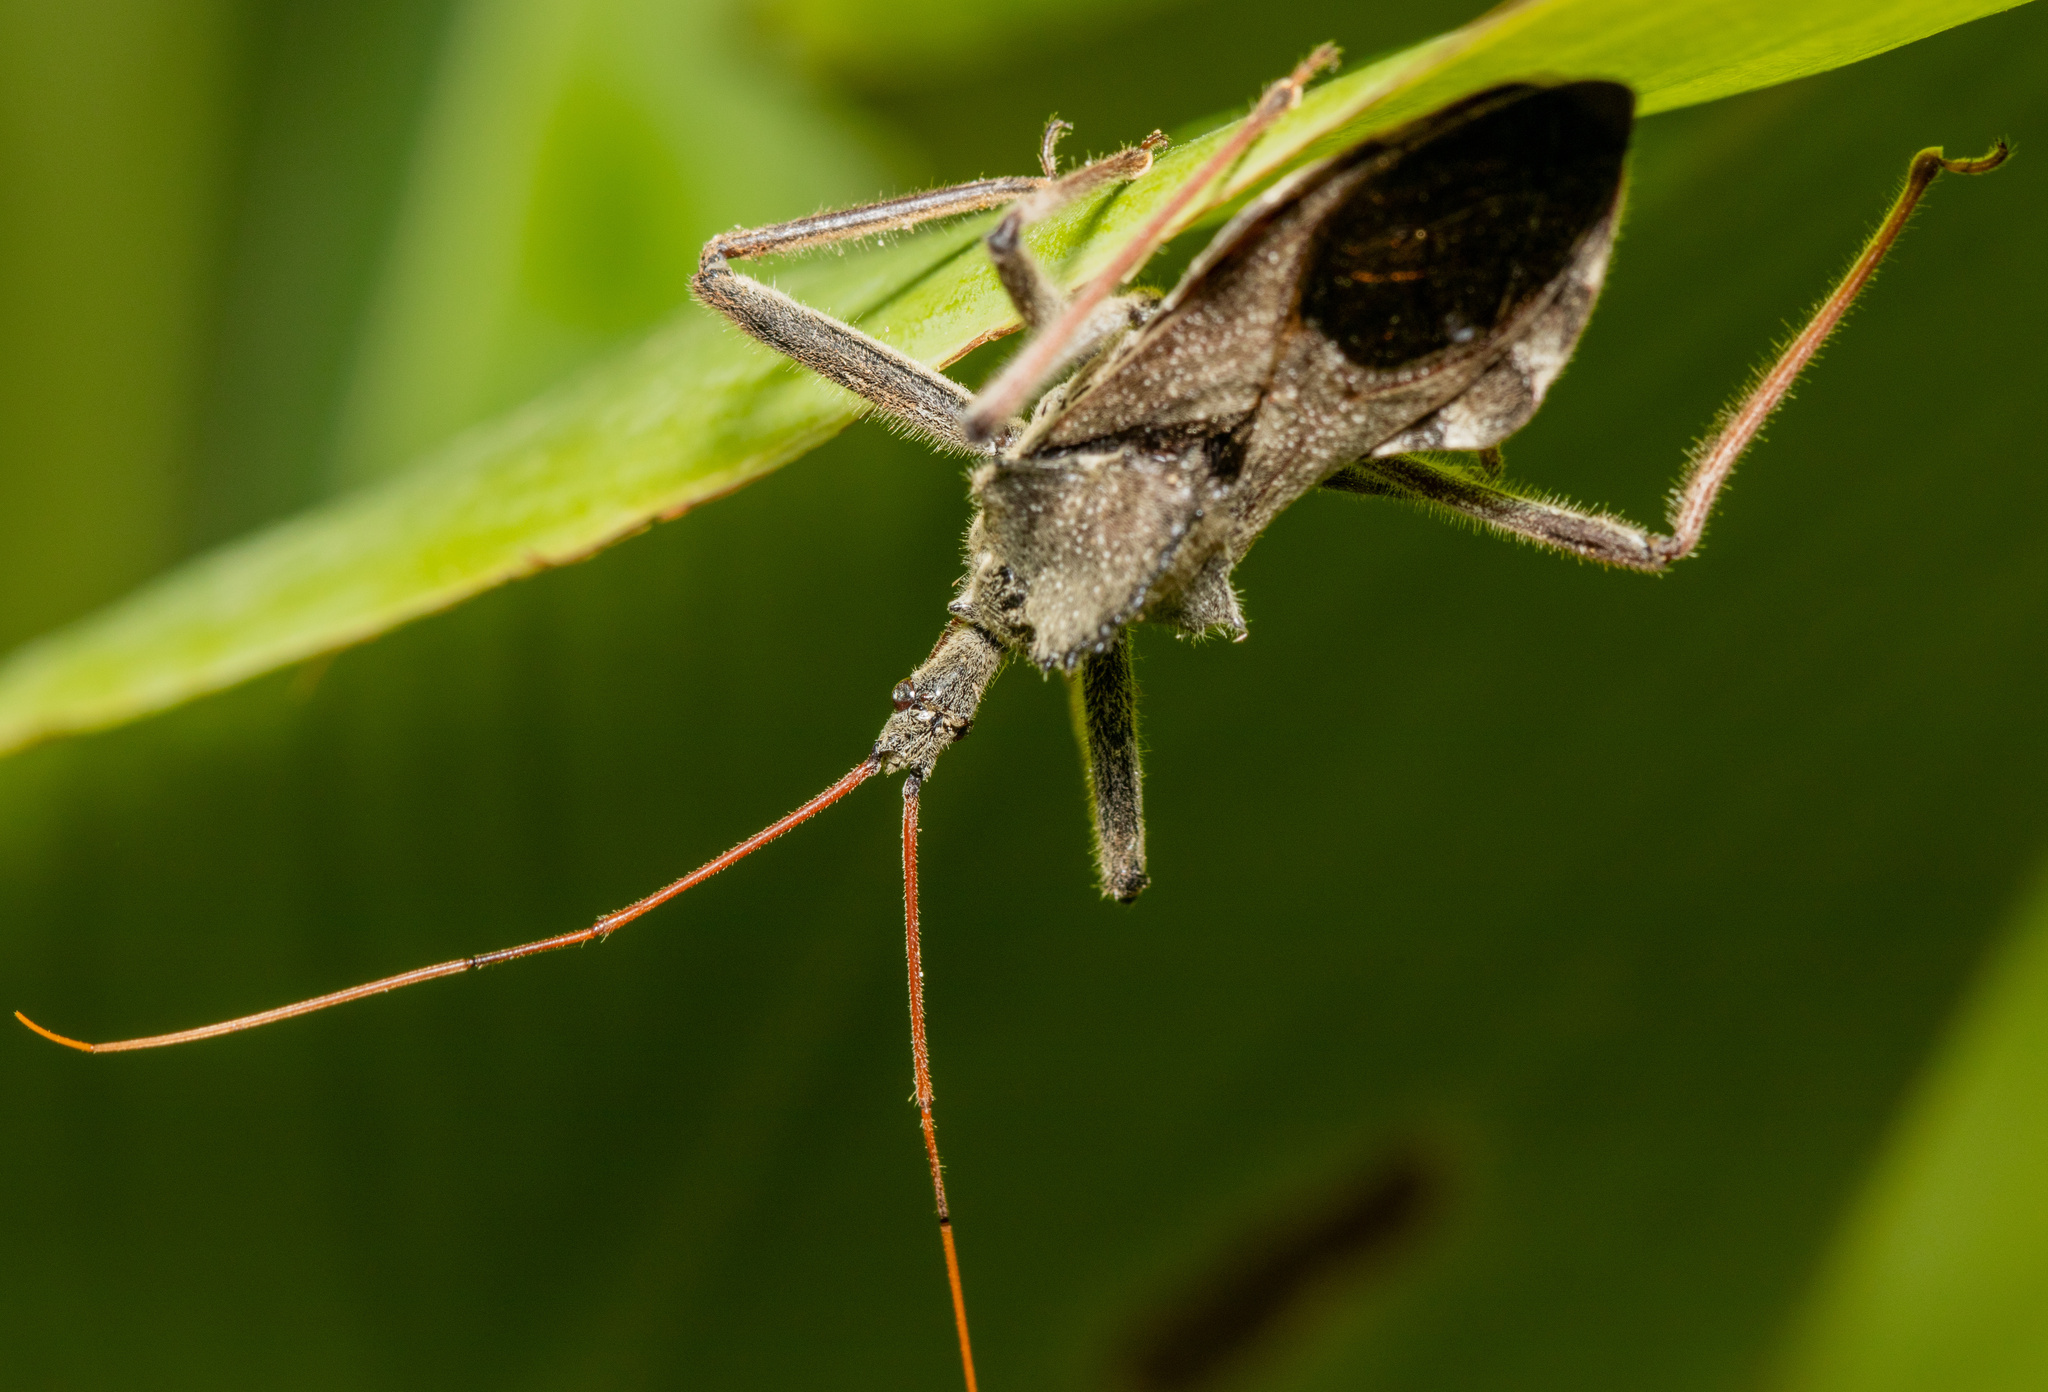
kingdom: Animalia
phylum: Arthropoda
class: Insecta
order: Hemiptera
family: Reduviidae
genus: Arilus
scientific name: Arilus cristatus
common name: North american wheel bug
